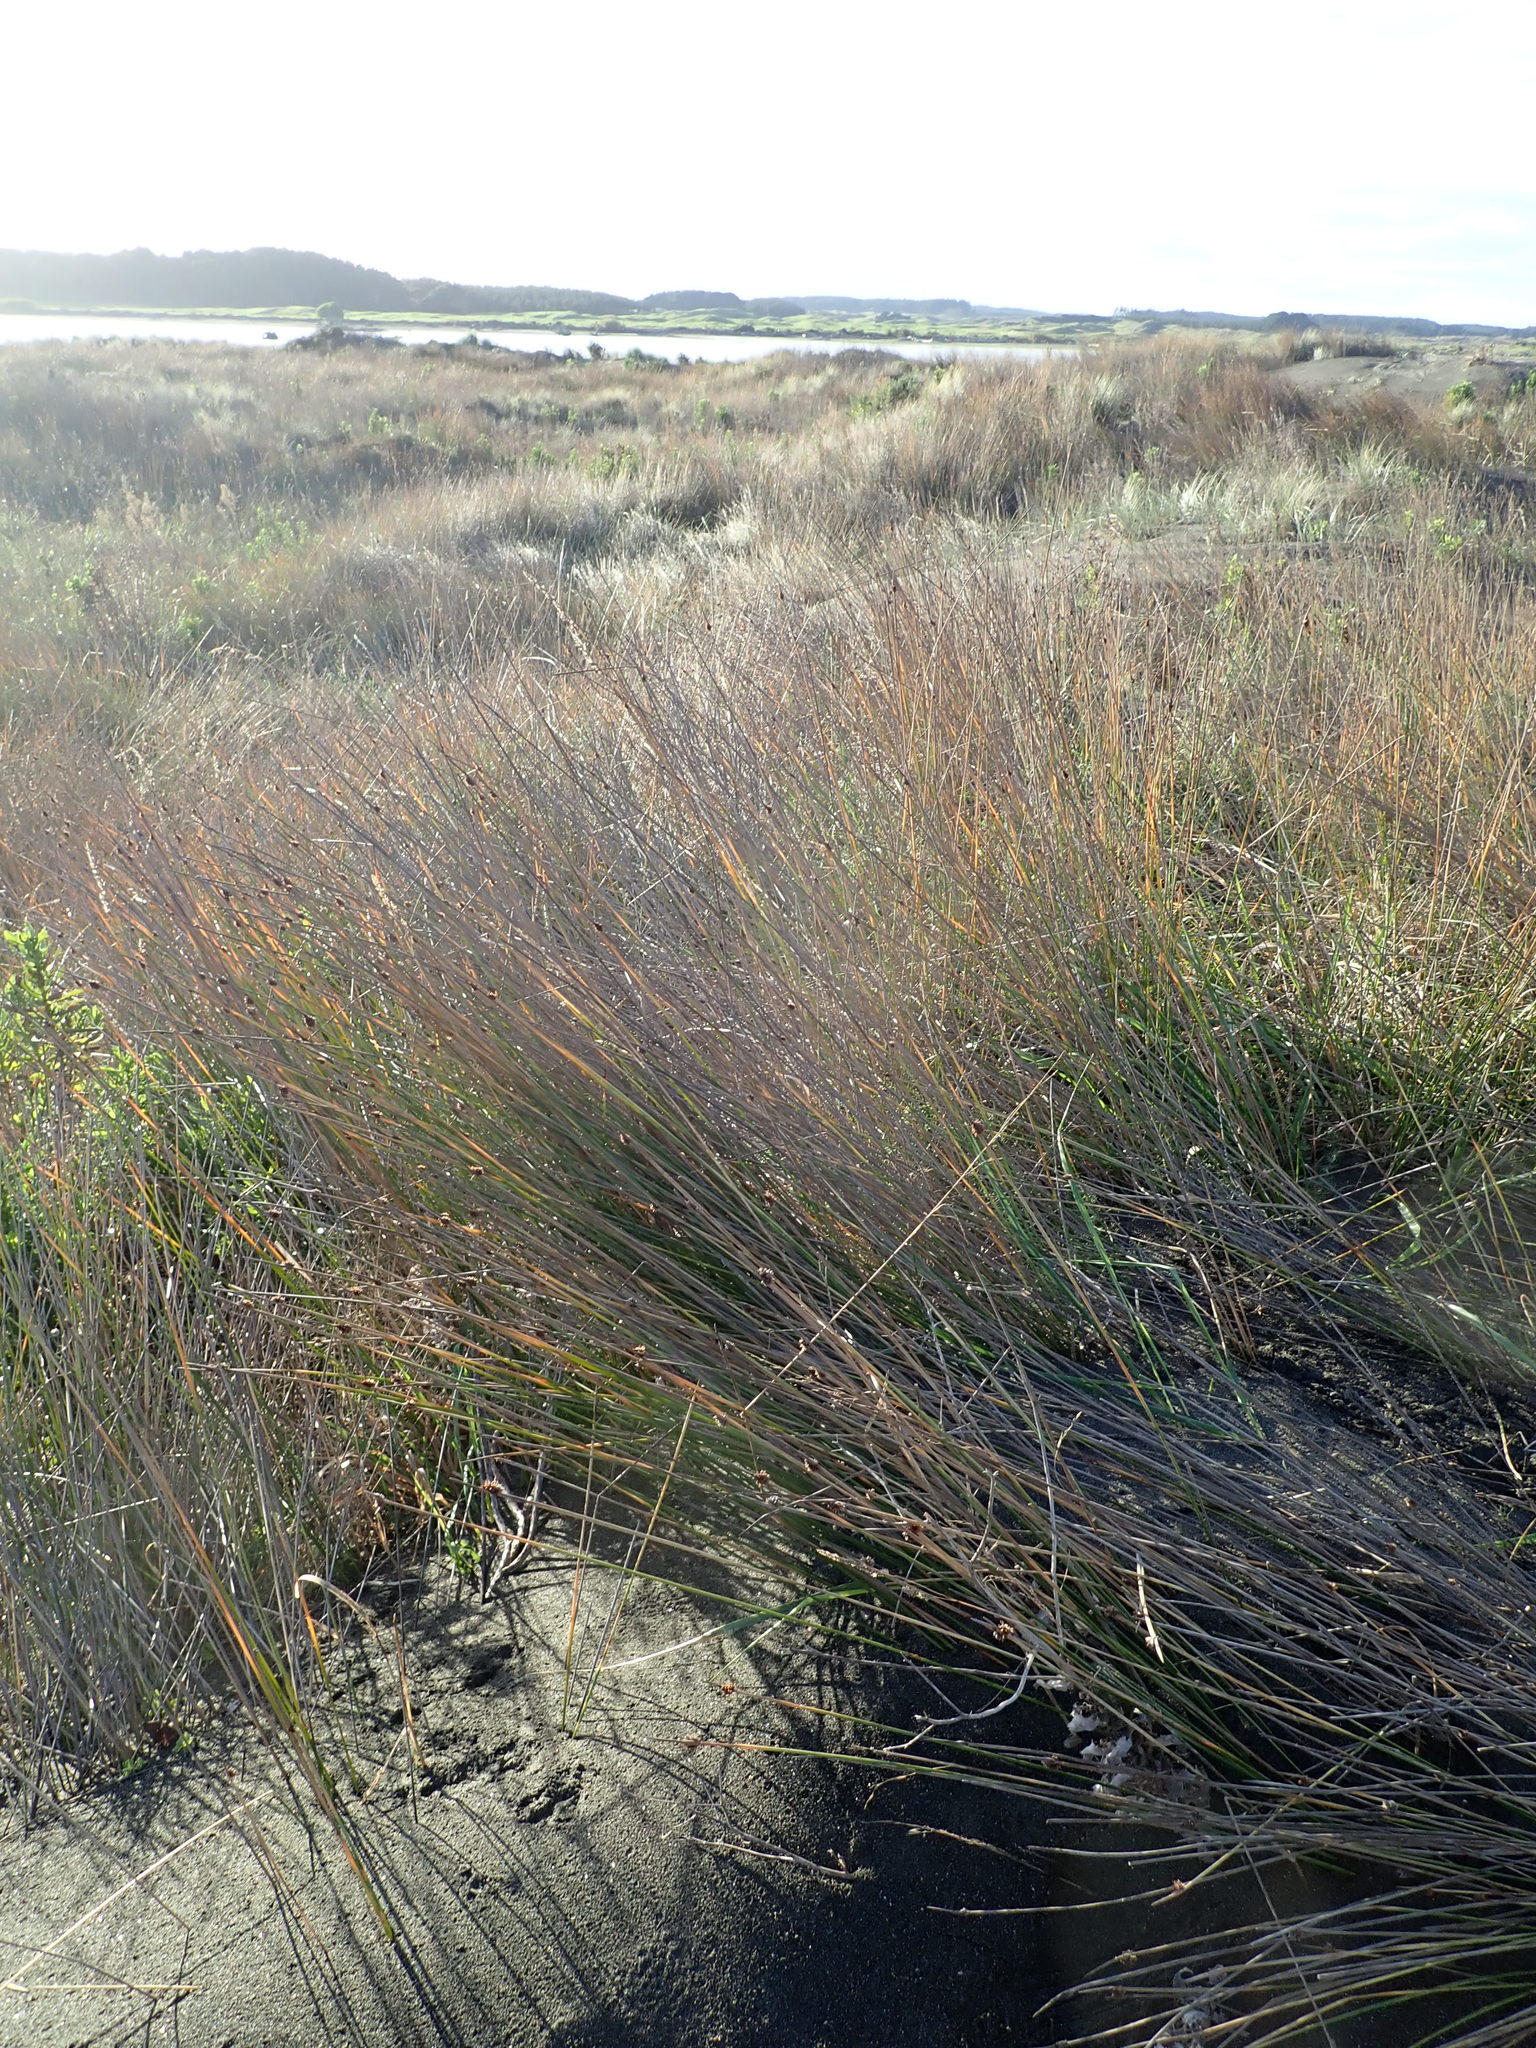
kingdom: Plantae
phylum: Tracheophyta
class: Liliopsida
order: Poales
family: Cyperaceae
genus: Ficinia
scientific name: Ficinia nodosa
